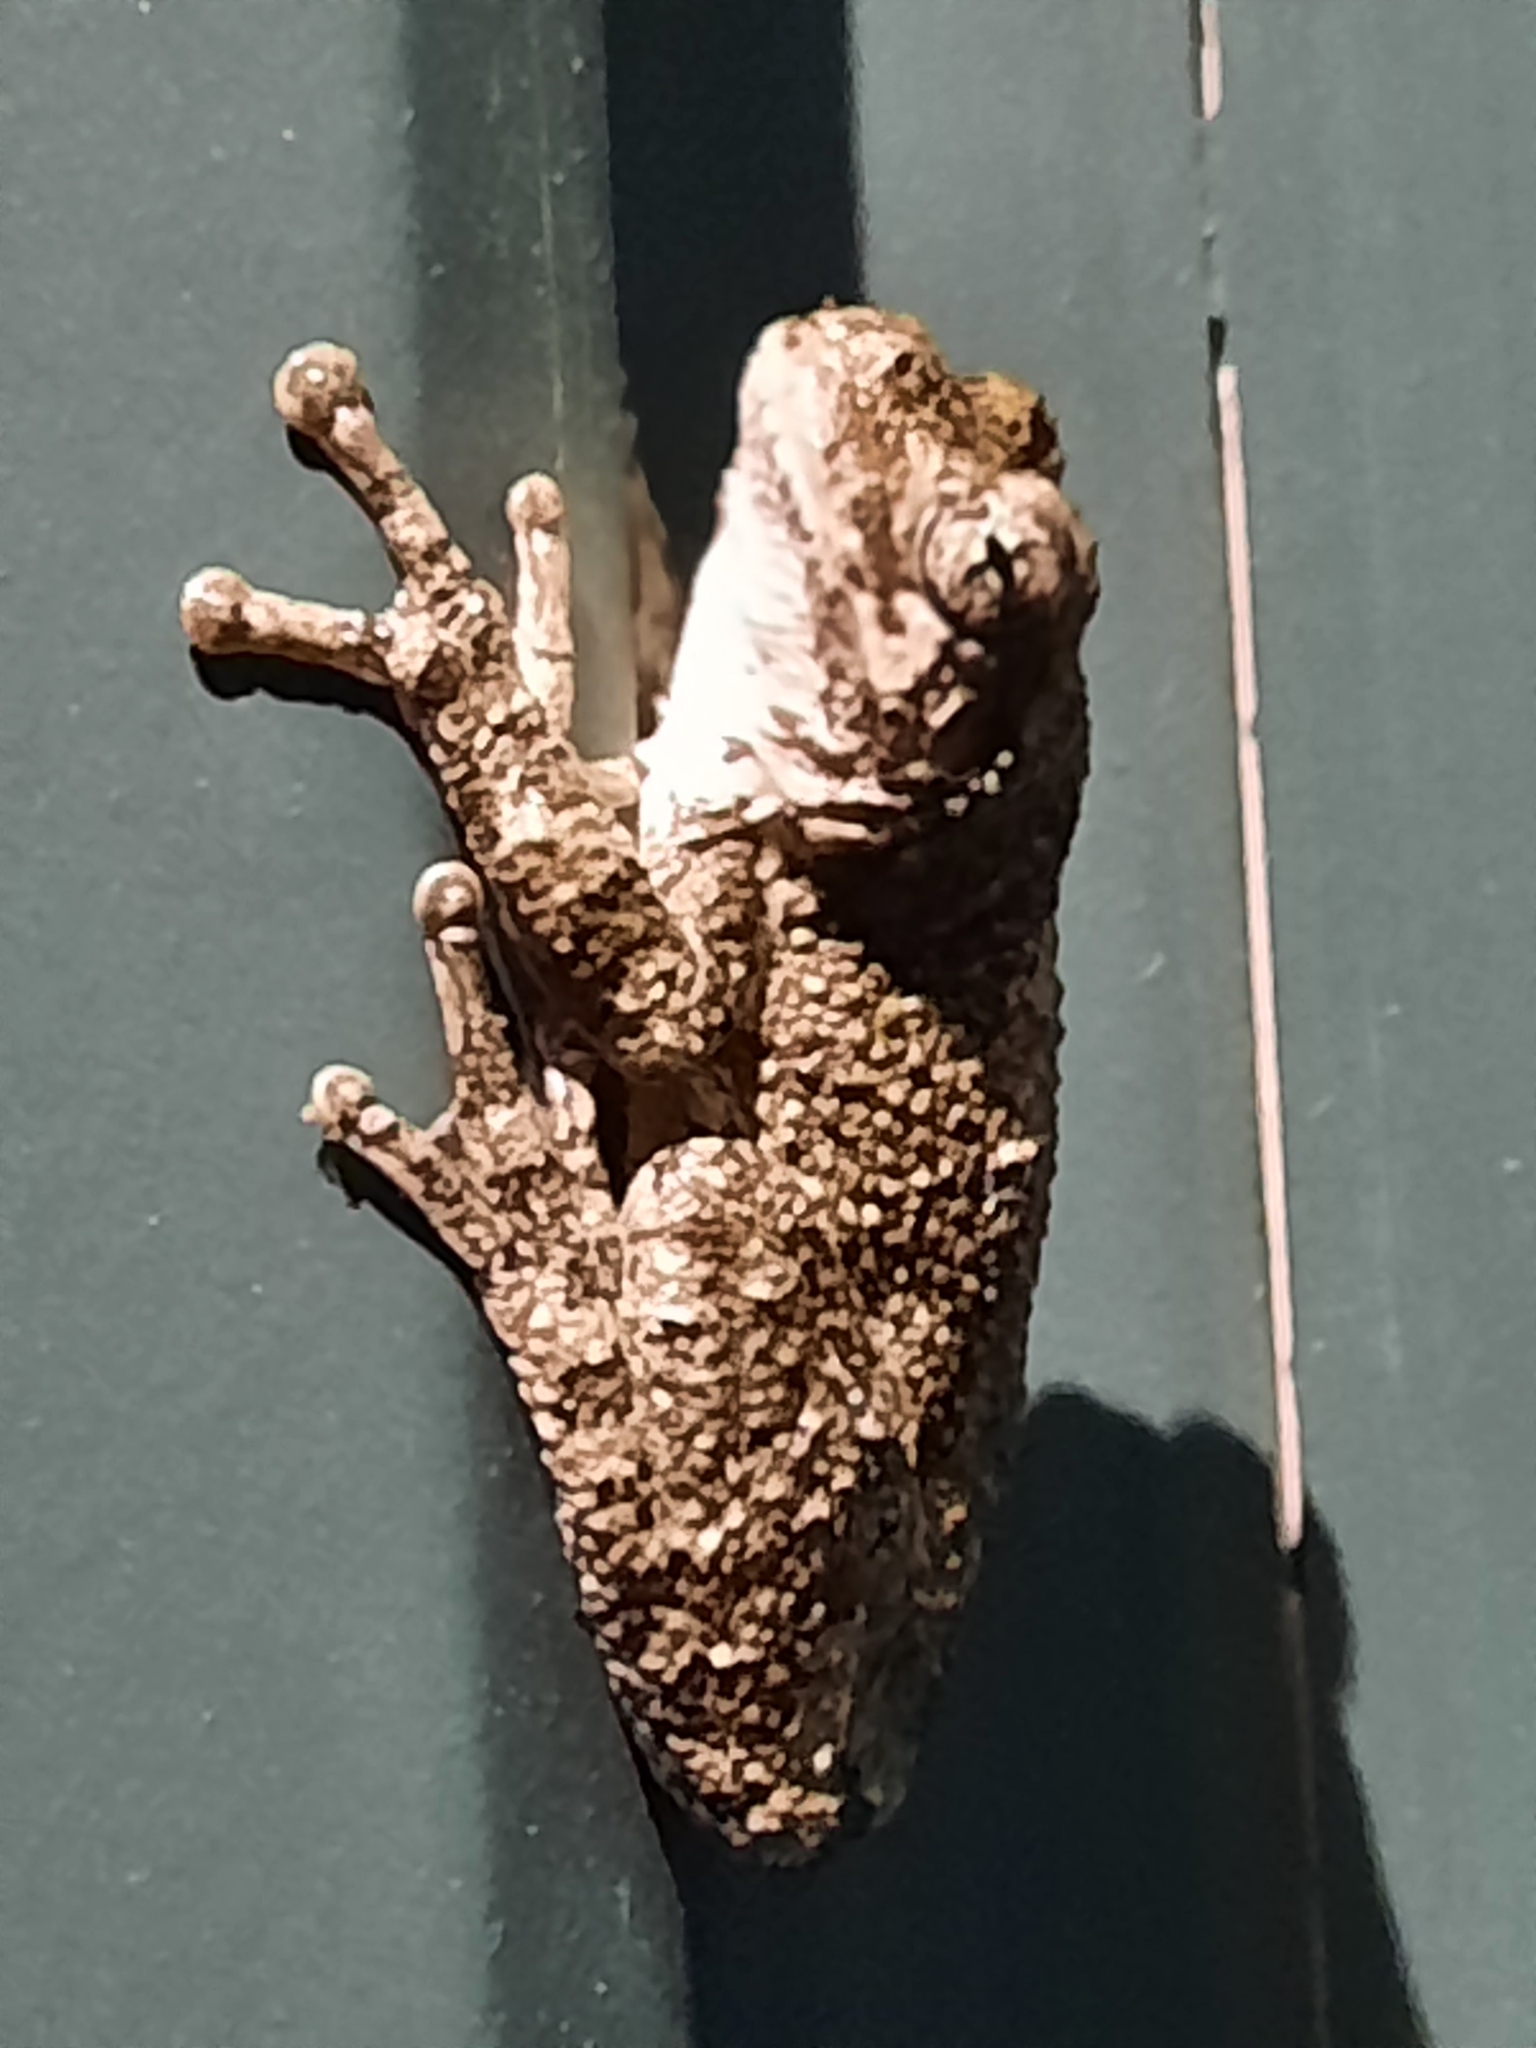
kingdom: Animalia
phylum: Chordata
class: Amphibia
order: Anura
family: Hylidae
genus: Dryophytes
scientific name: Dryophytes versicolor
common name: Gray treefrog
